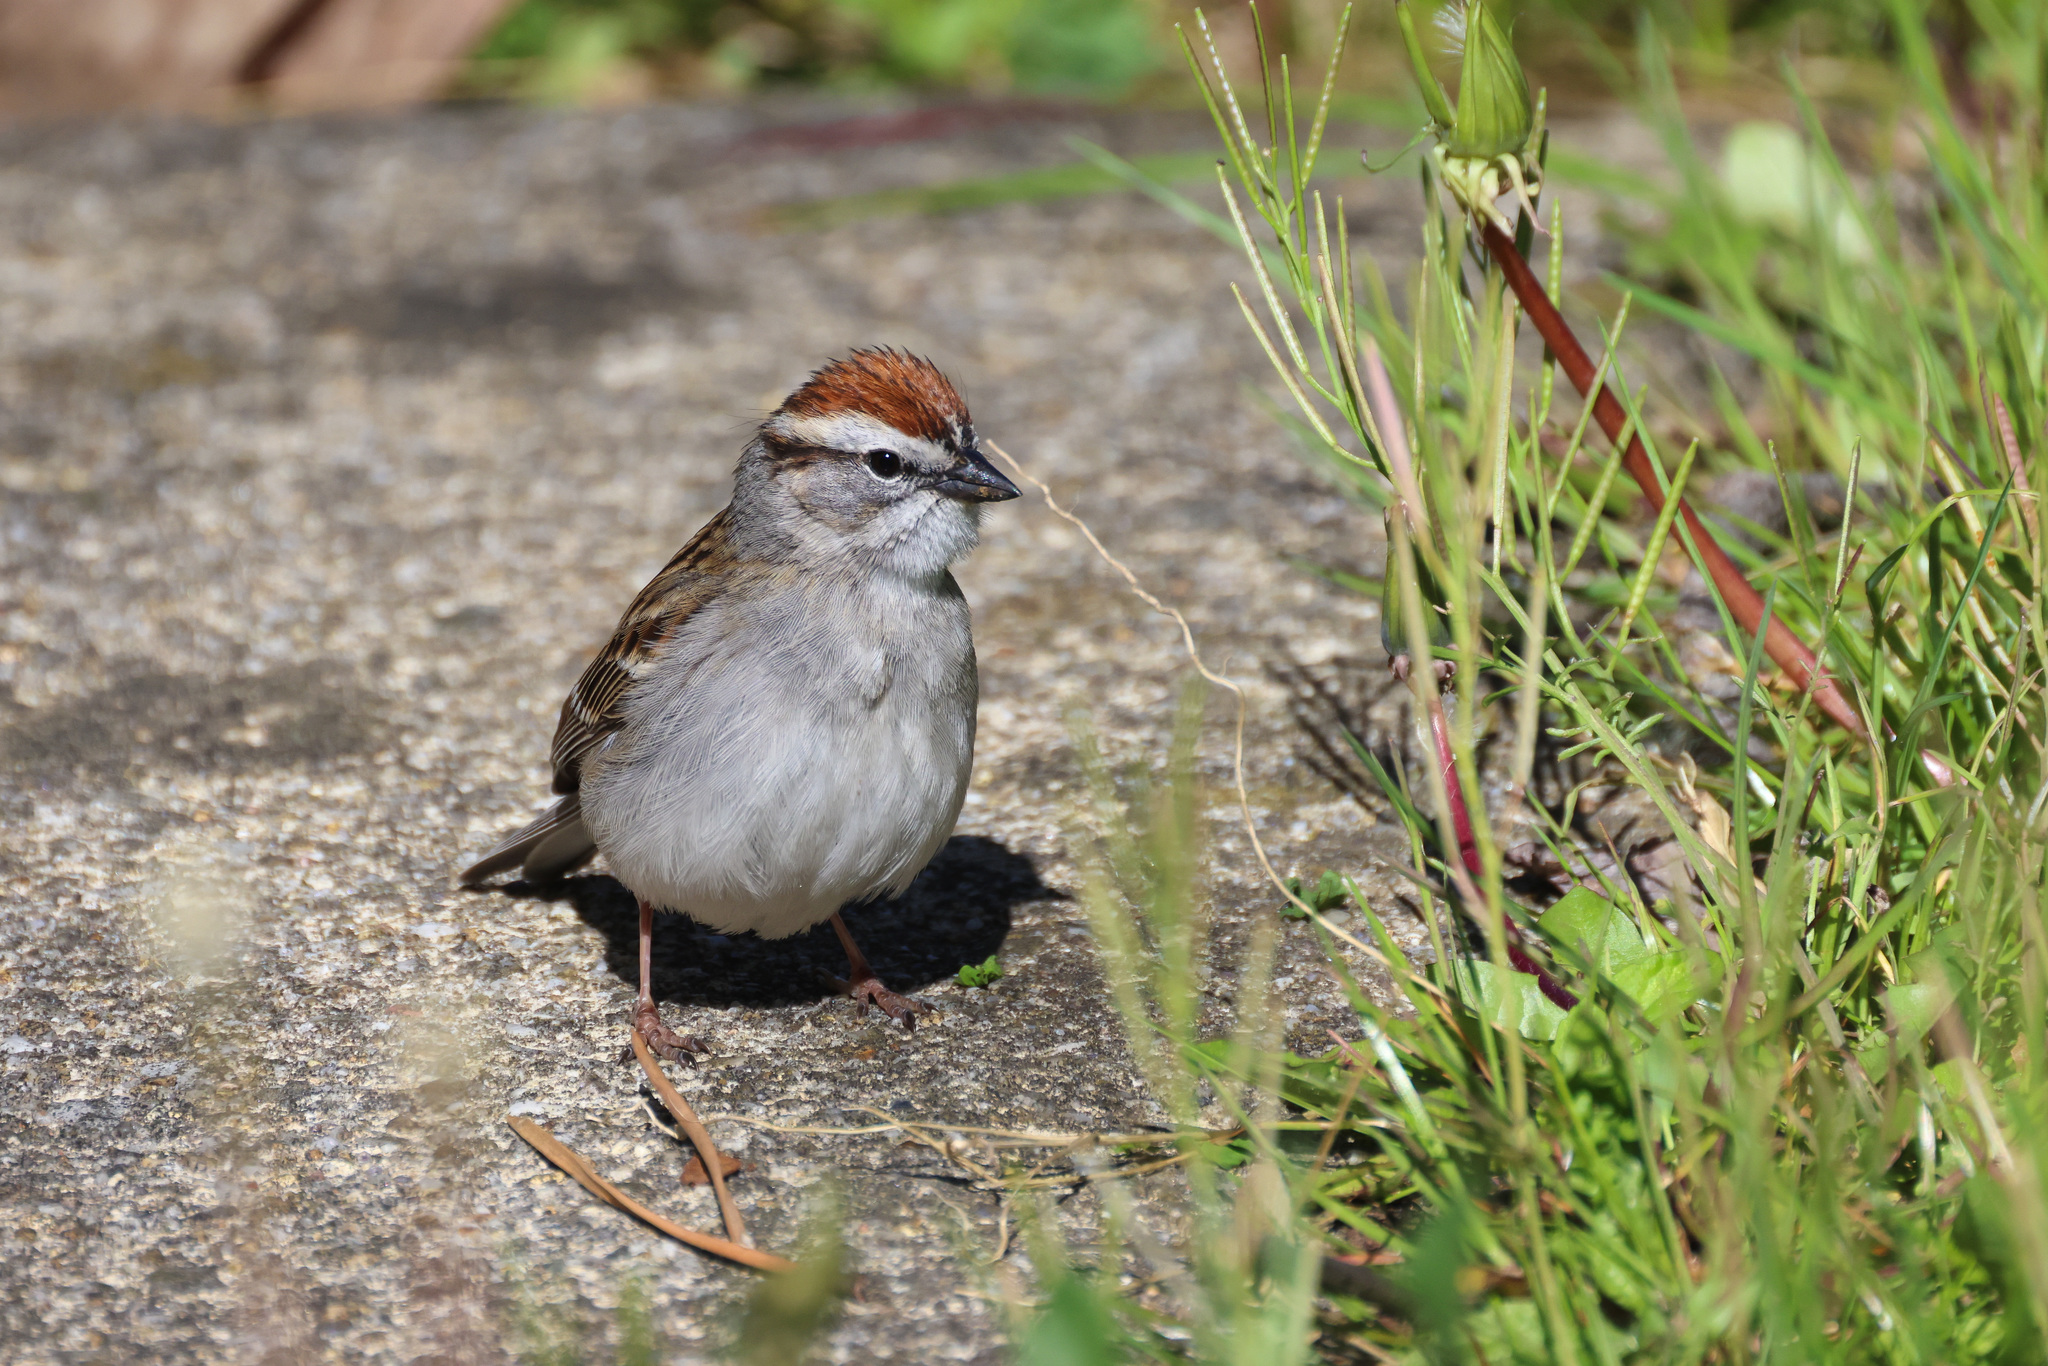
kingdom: Animalia
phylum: Chordata
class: Aves
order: Passeriformes
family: Passerellidae
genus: Spizella
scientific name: Spizella passerina
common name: Chipping sparrow
